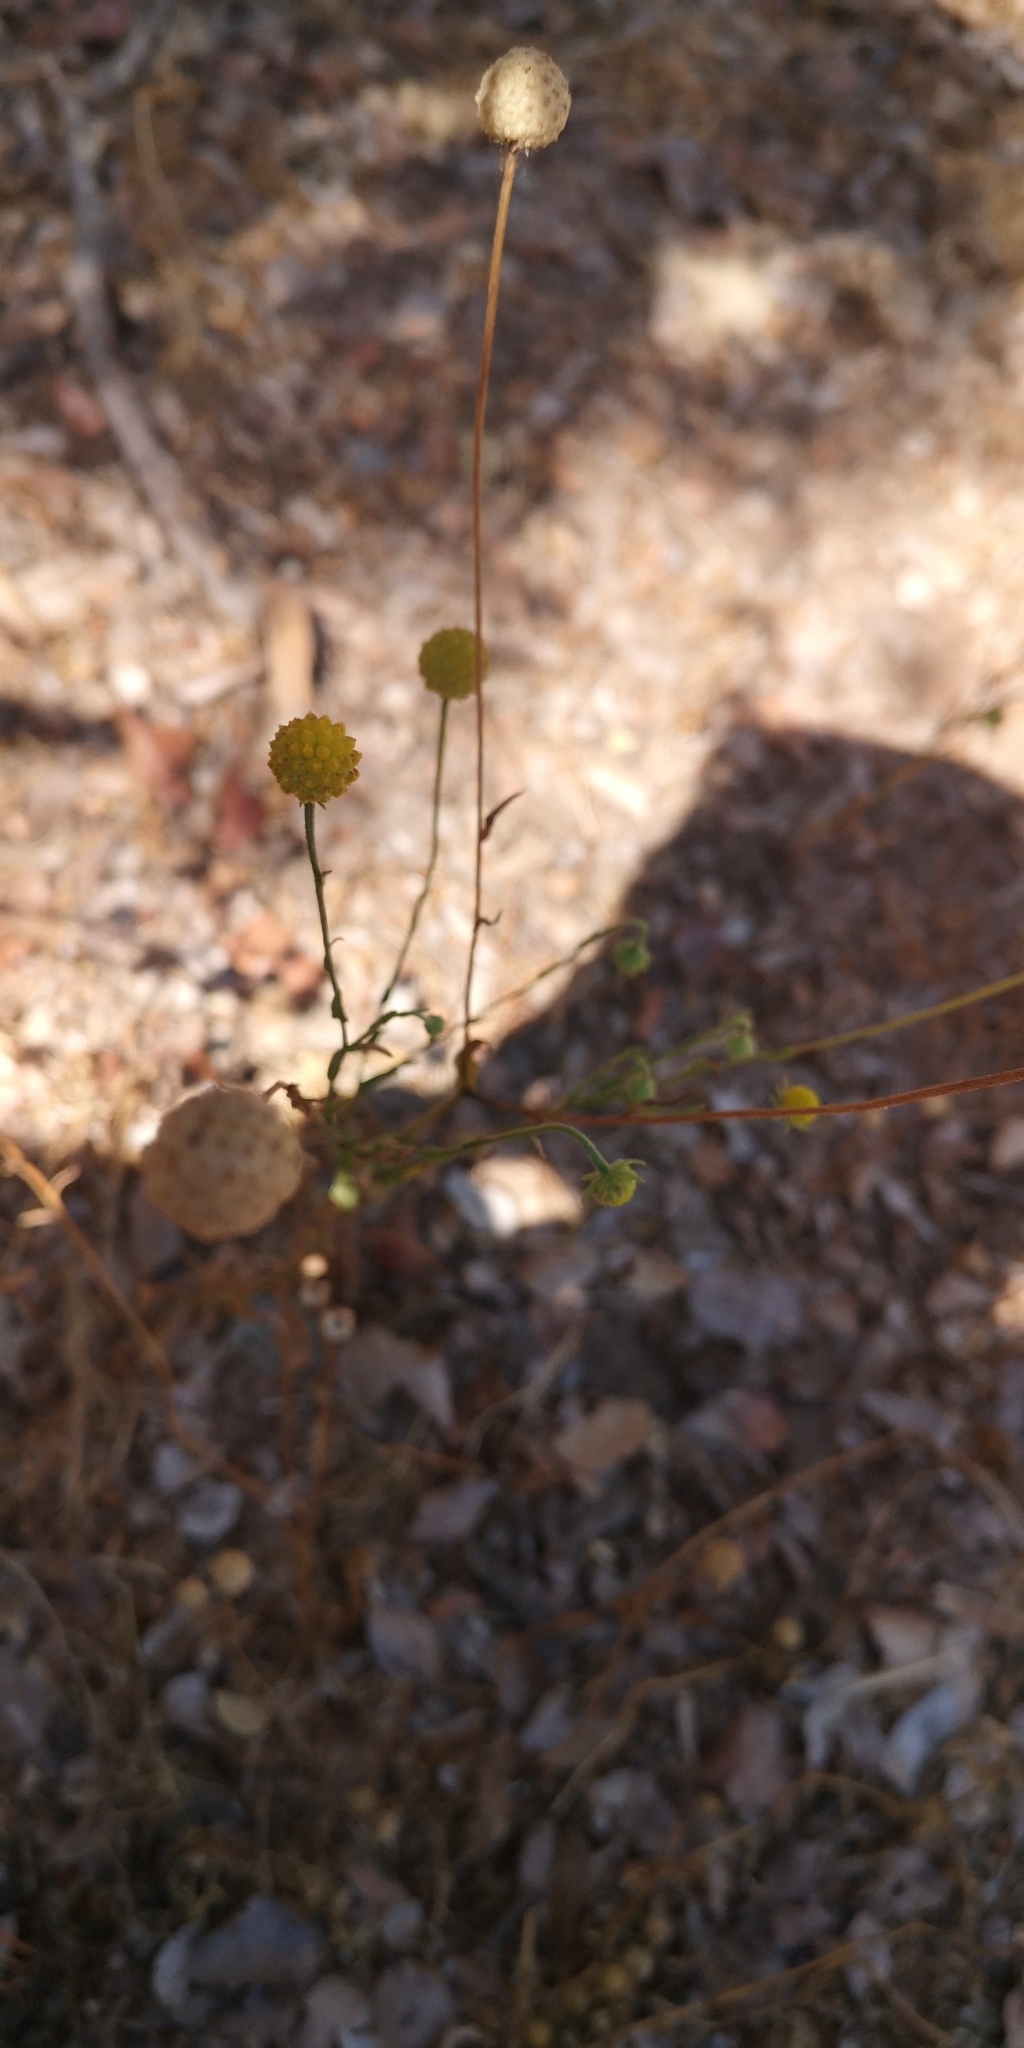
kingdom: Plantae
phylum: Tracheophyta
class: Magnoliopsida
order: Asterales
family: Asteraceae
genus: Helenium
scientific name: Helenium aromaticum
